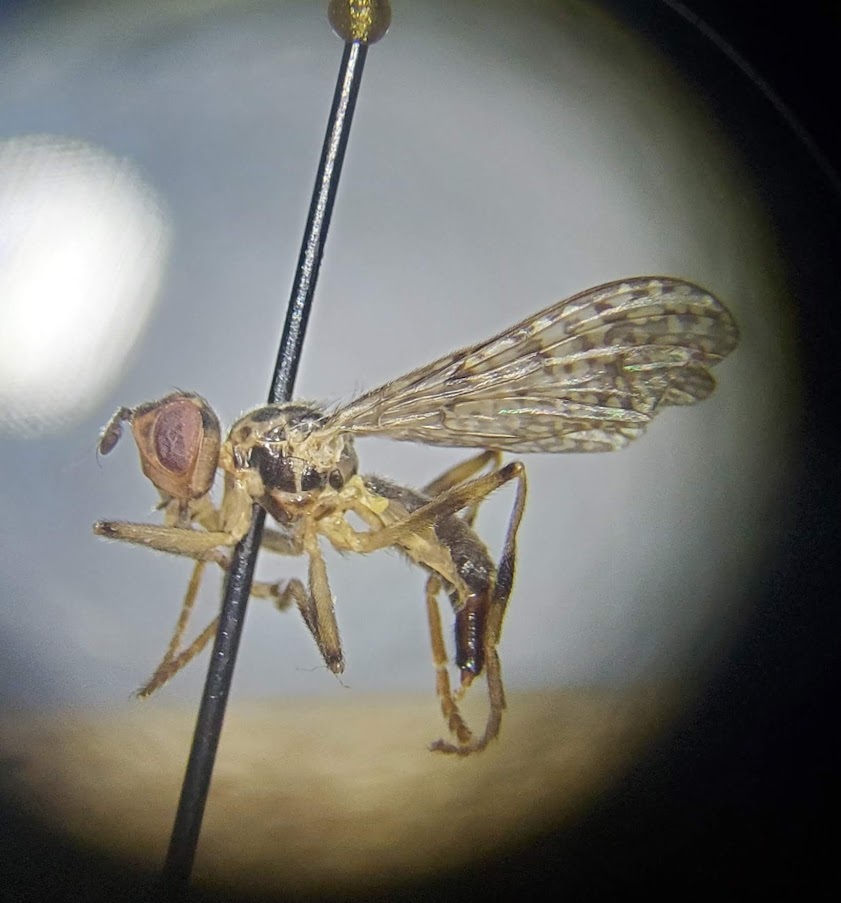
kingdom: Animalia
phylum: Arthropoda
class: Insecta
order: Diptera
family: Pyrgotidae
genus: Boreothrinax
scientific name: Boreothrinax
